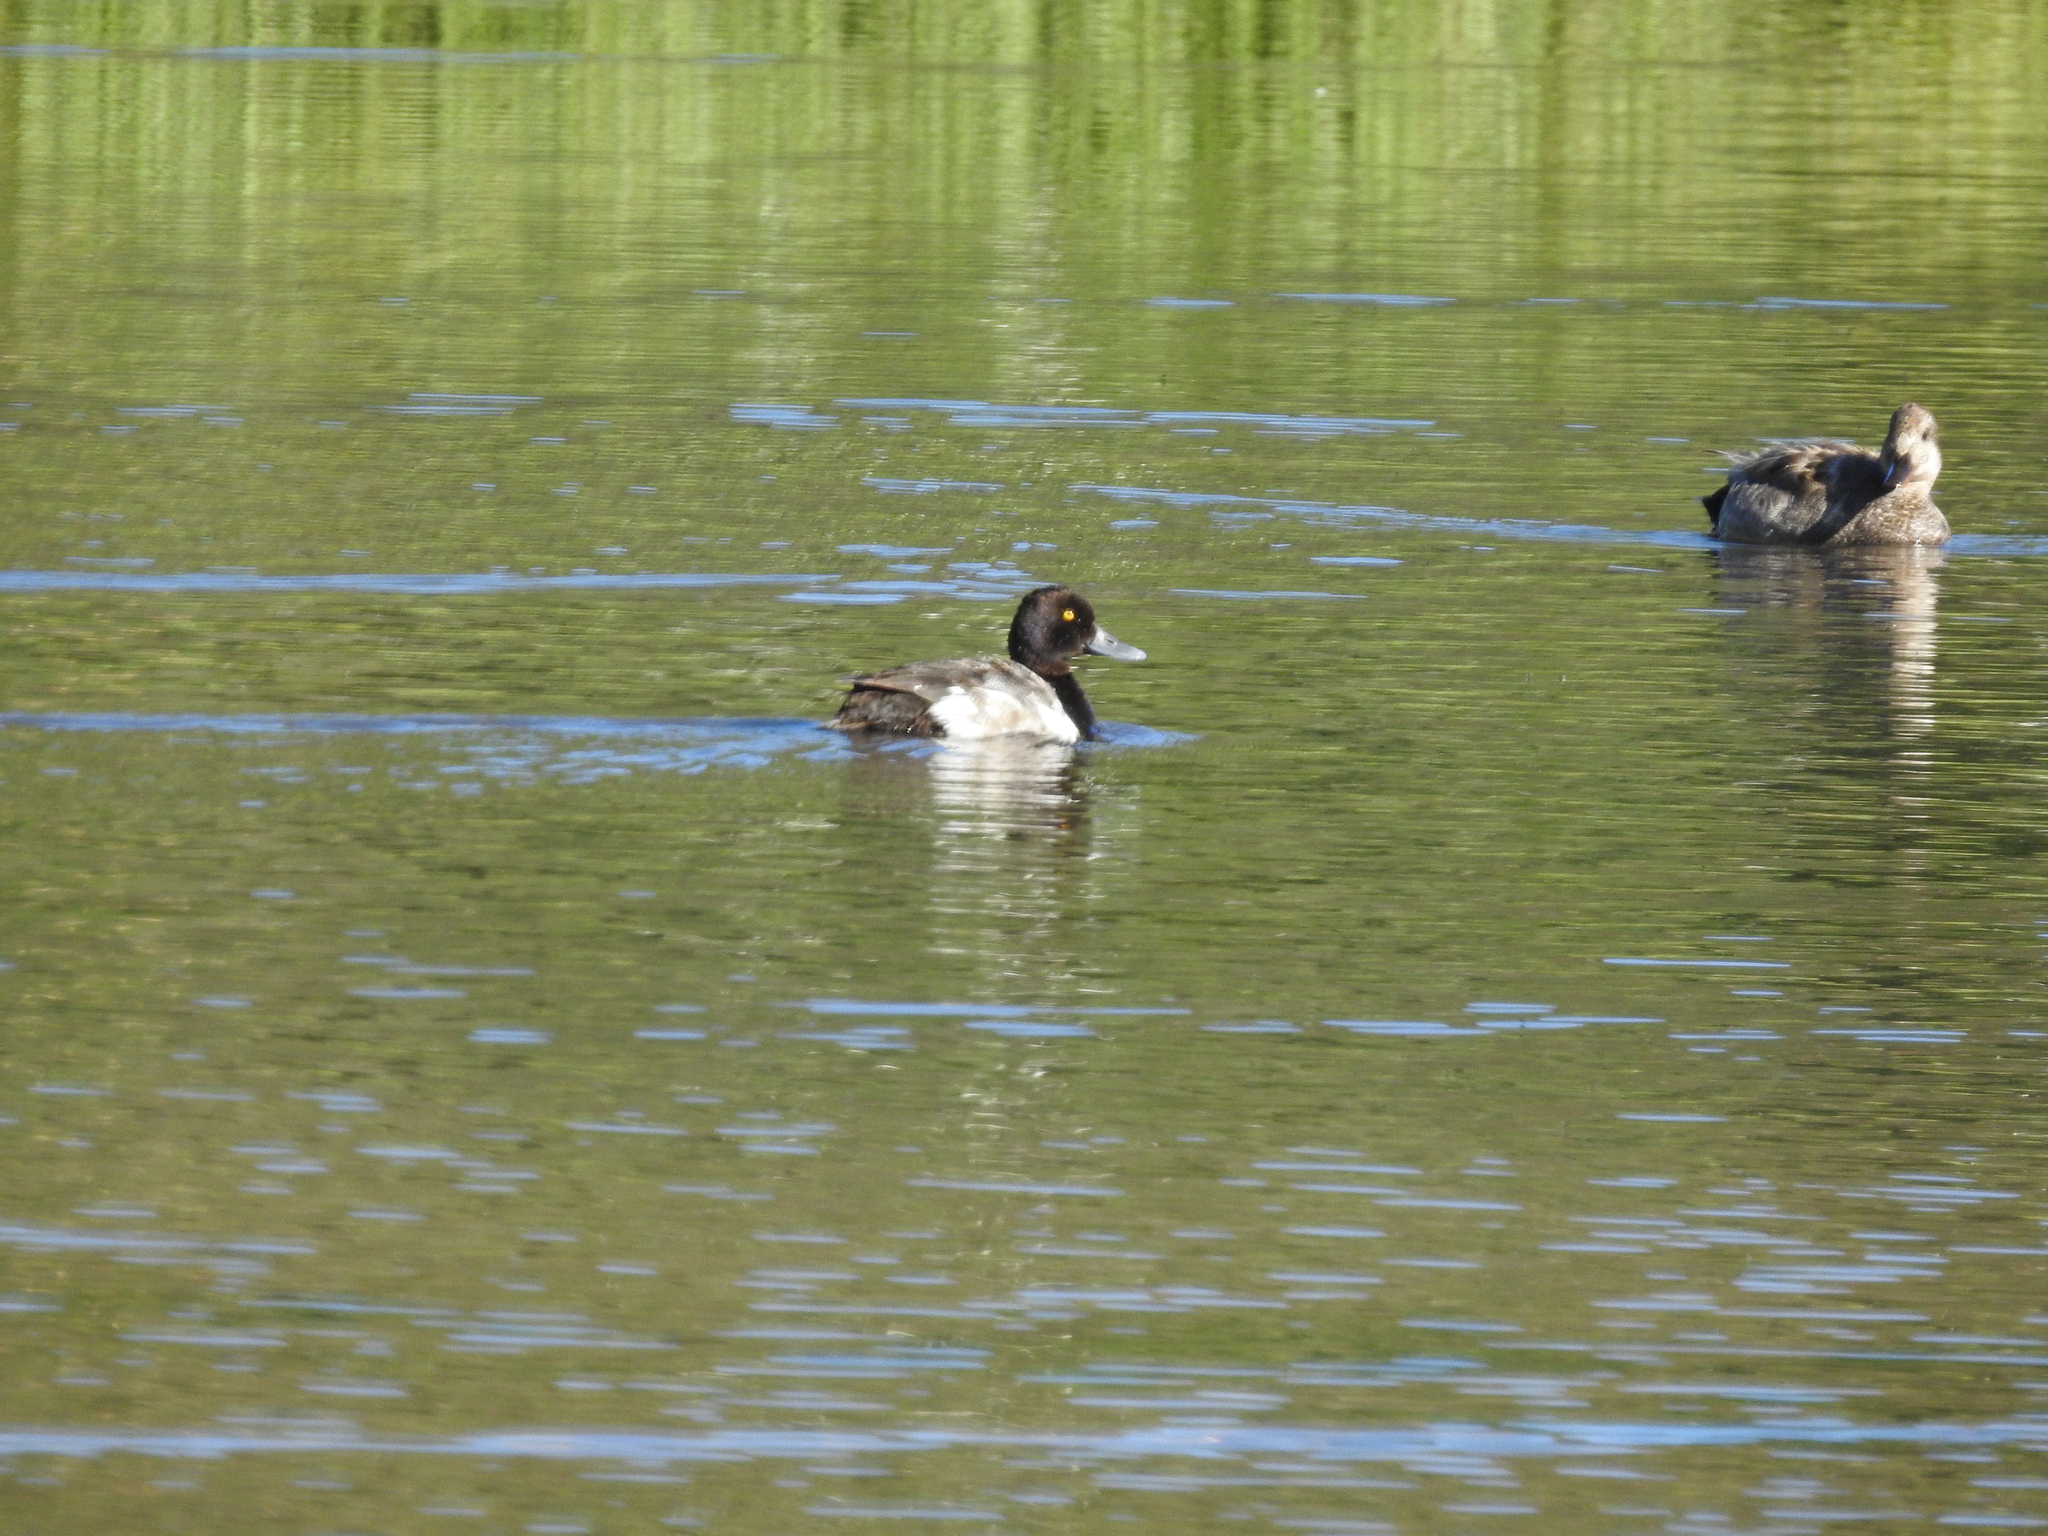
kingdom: Animalia
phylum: Chordata
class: Aves
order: Anseriformes
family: Anatidae
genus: Aythya
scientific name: Aythya affinis
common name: Lesser scaup
